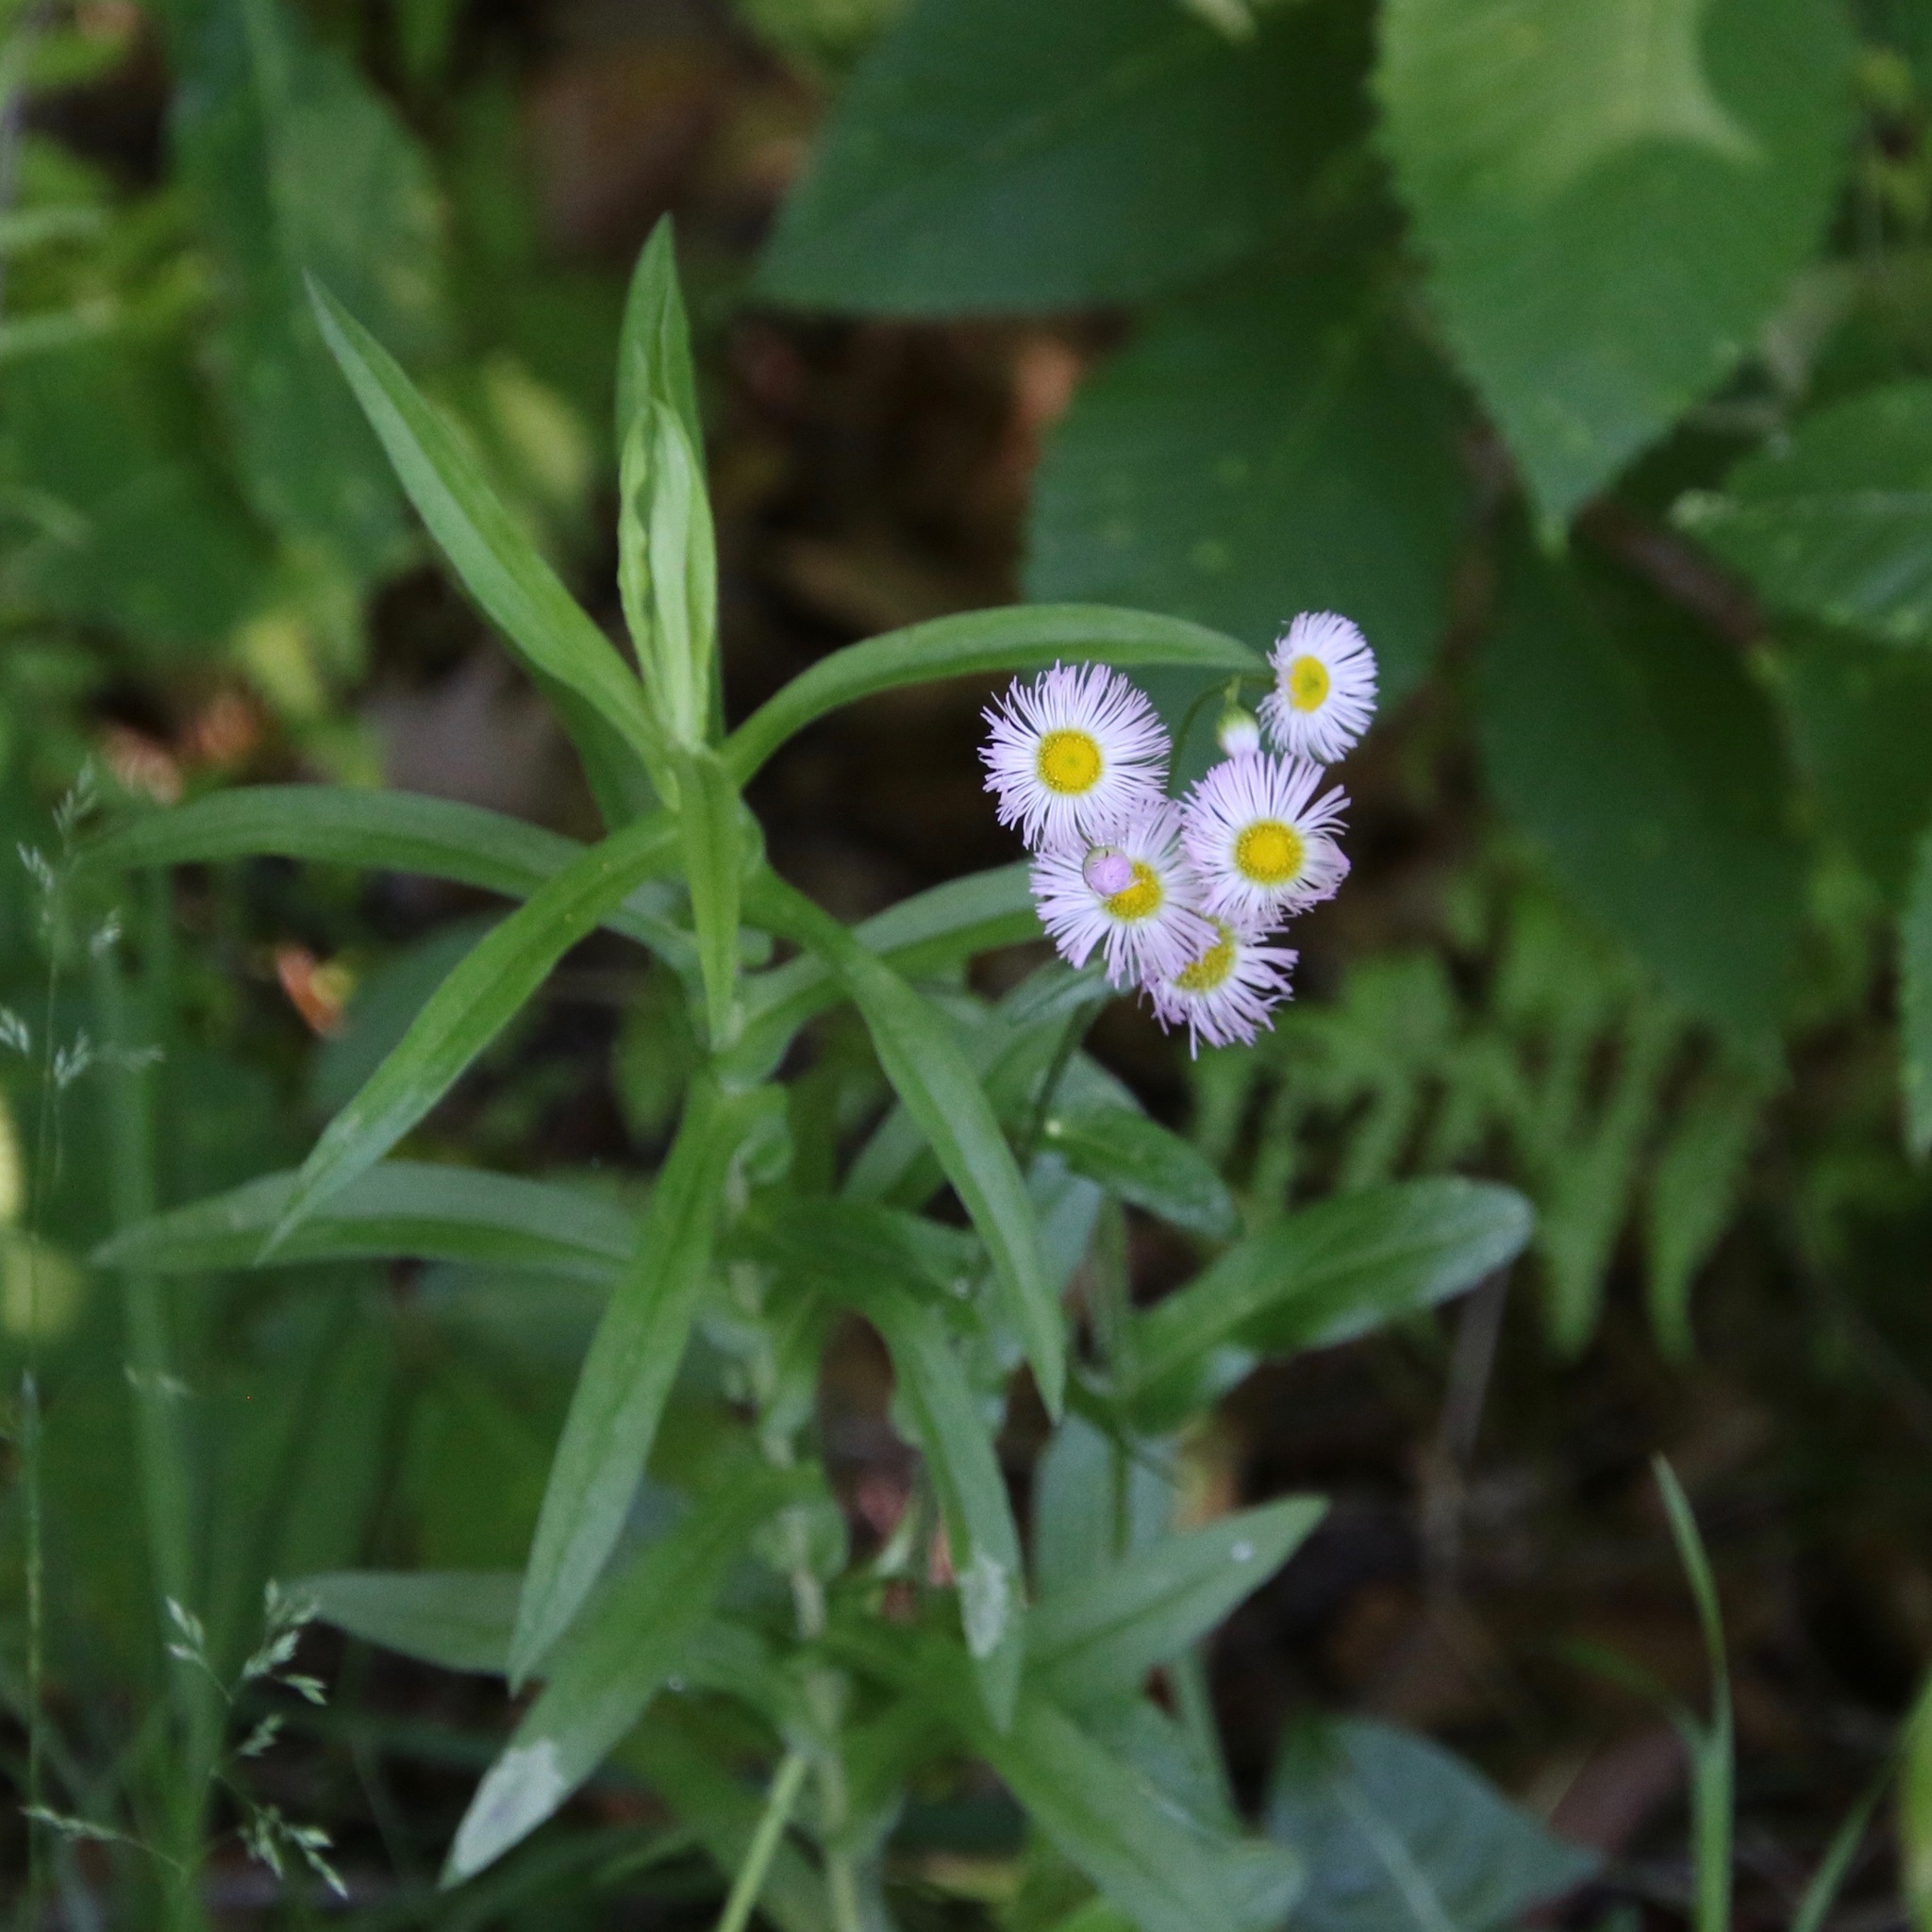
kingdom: Plantae
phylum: Tracheophyta
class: Magnoliopsida
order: Asterales
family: Asteraceae
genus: Erigeron
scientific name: Erigeron philadelphicus
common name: Robin's-plantain
